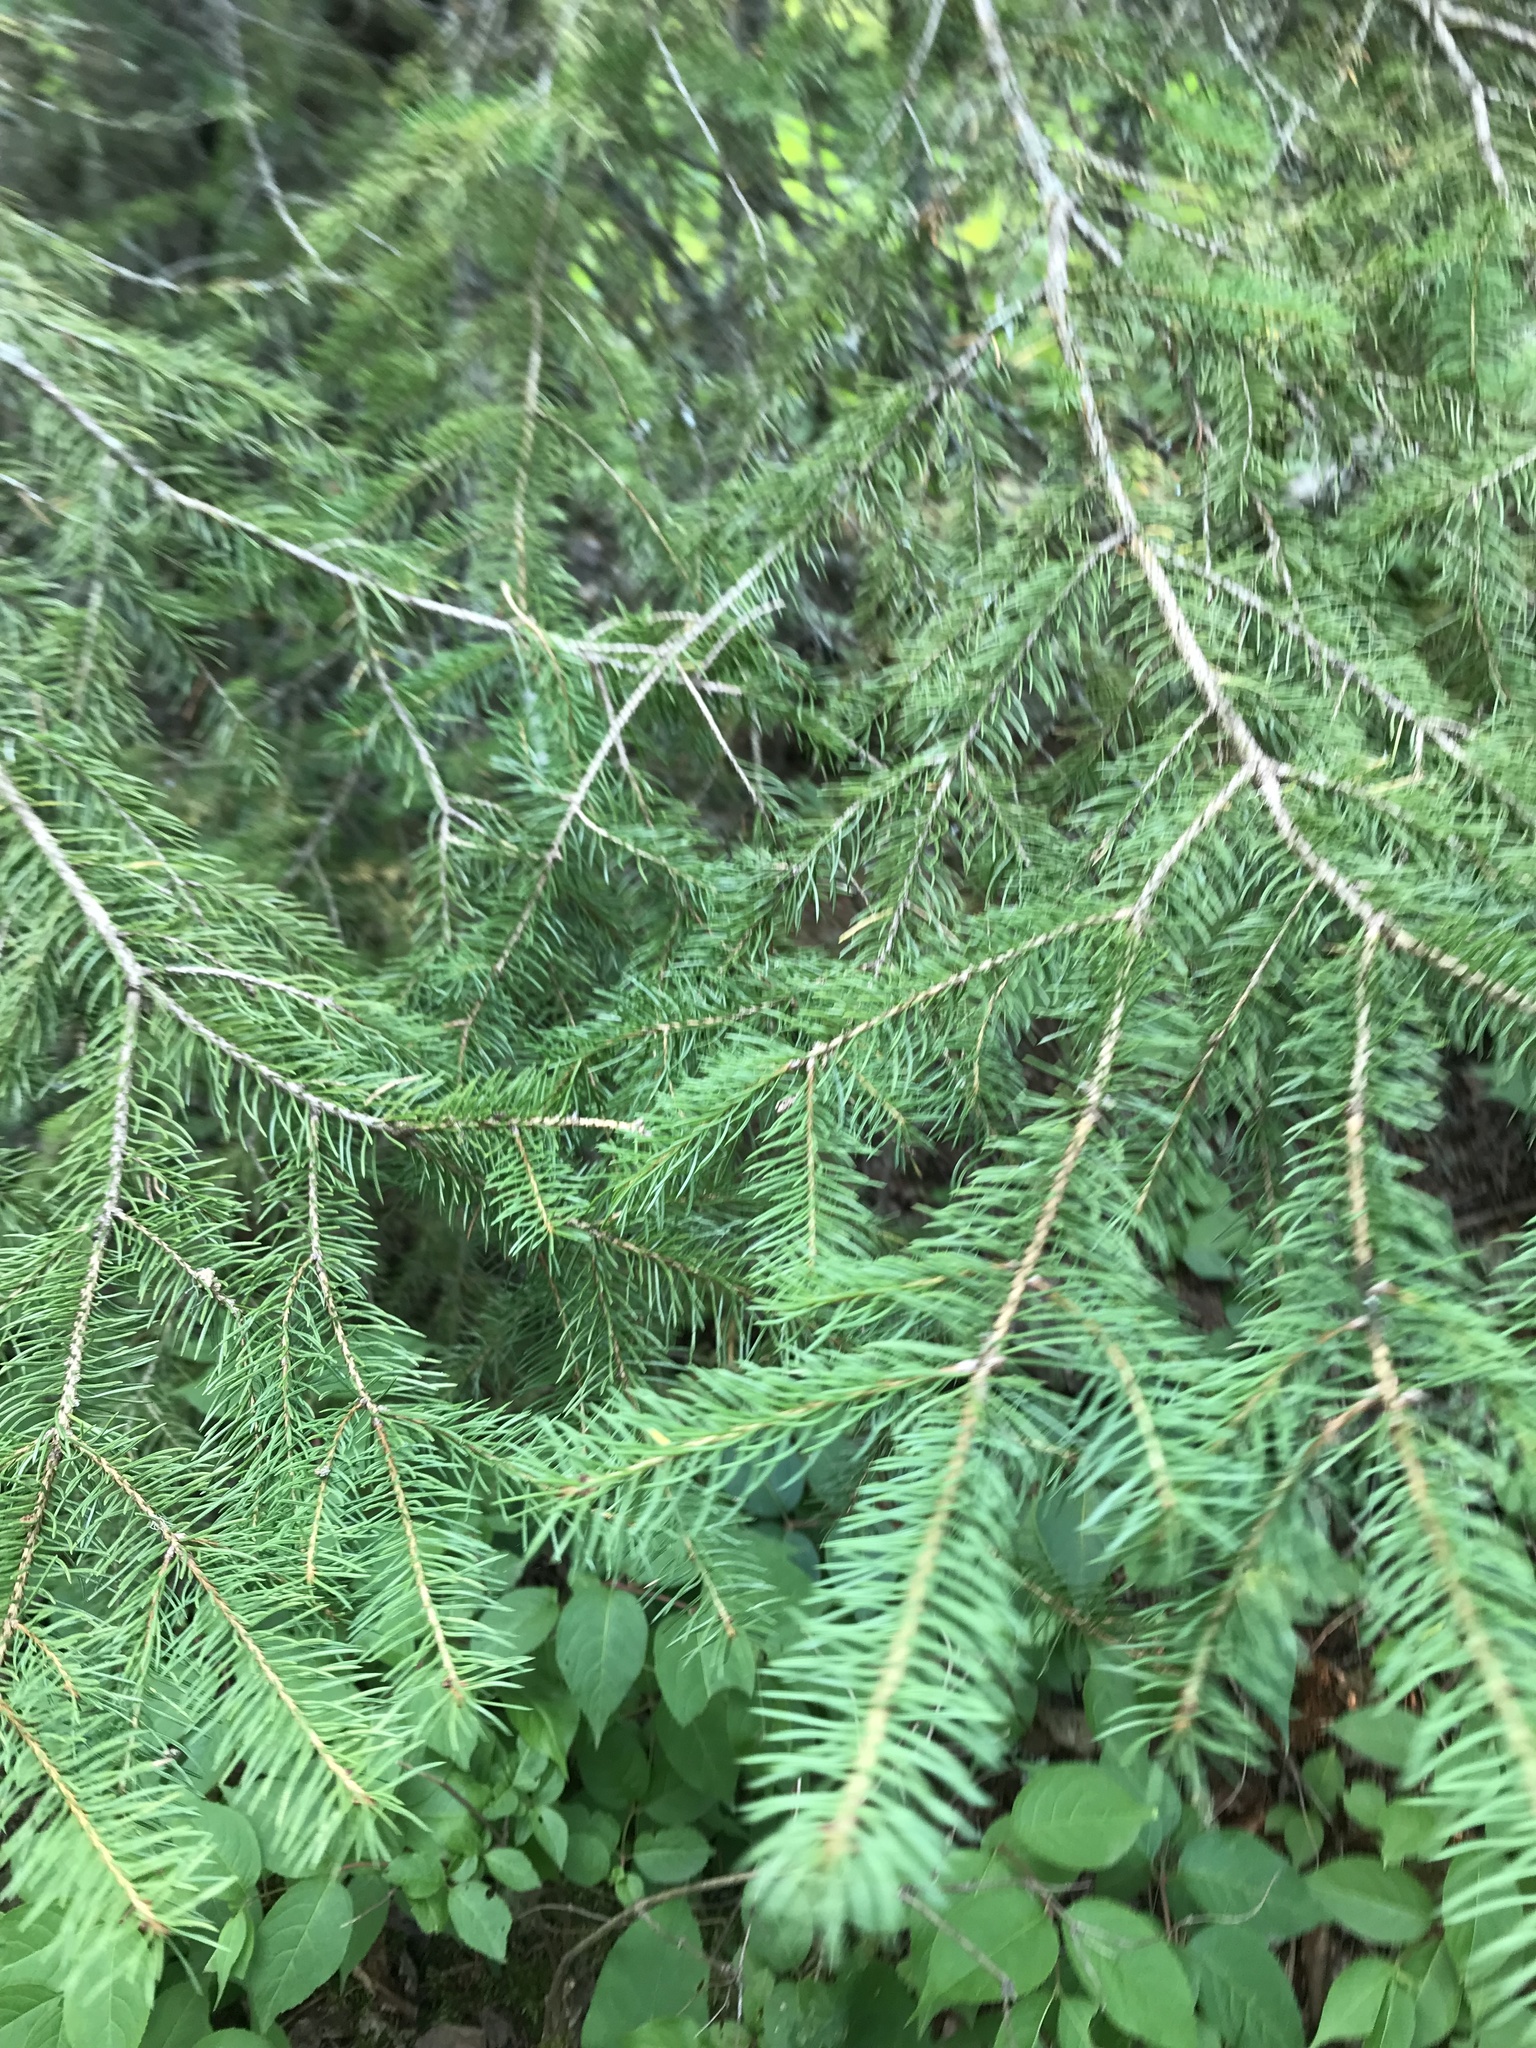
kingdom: Plantae
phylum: Tracheophyta
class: Pinopsida
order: Pinales
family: Pinaceae
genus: Picea
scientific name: Picea glauca
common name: White spruce
